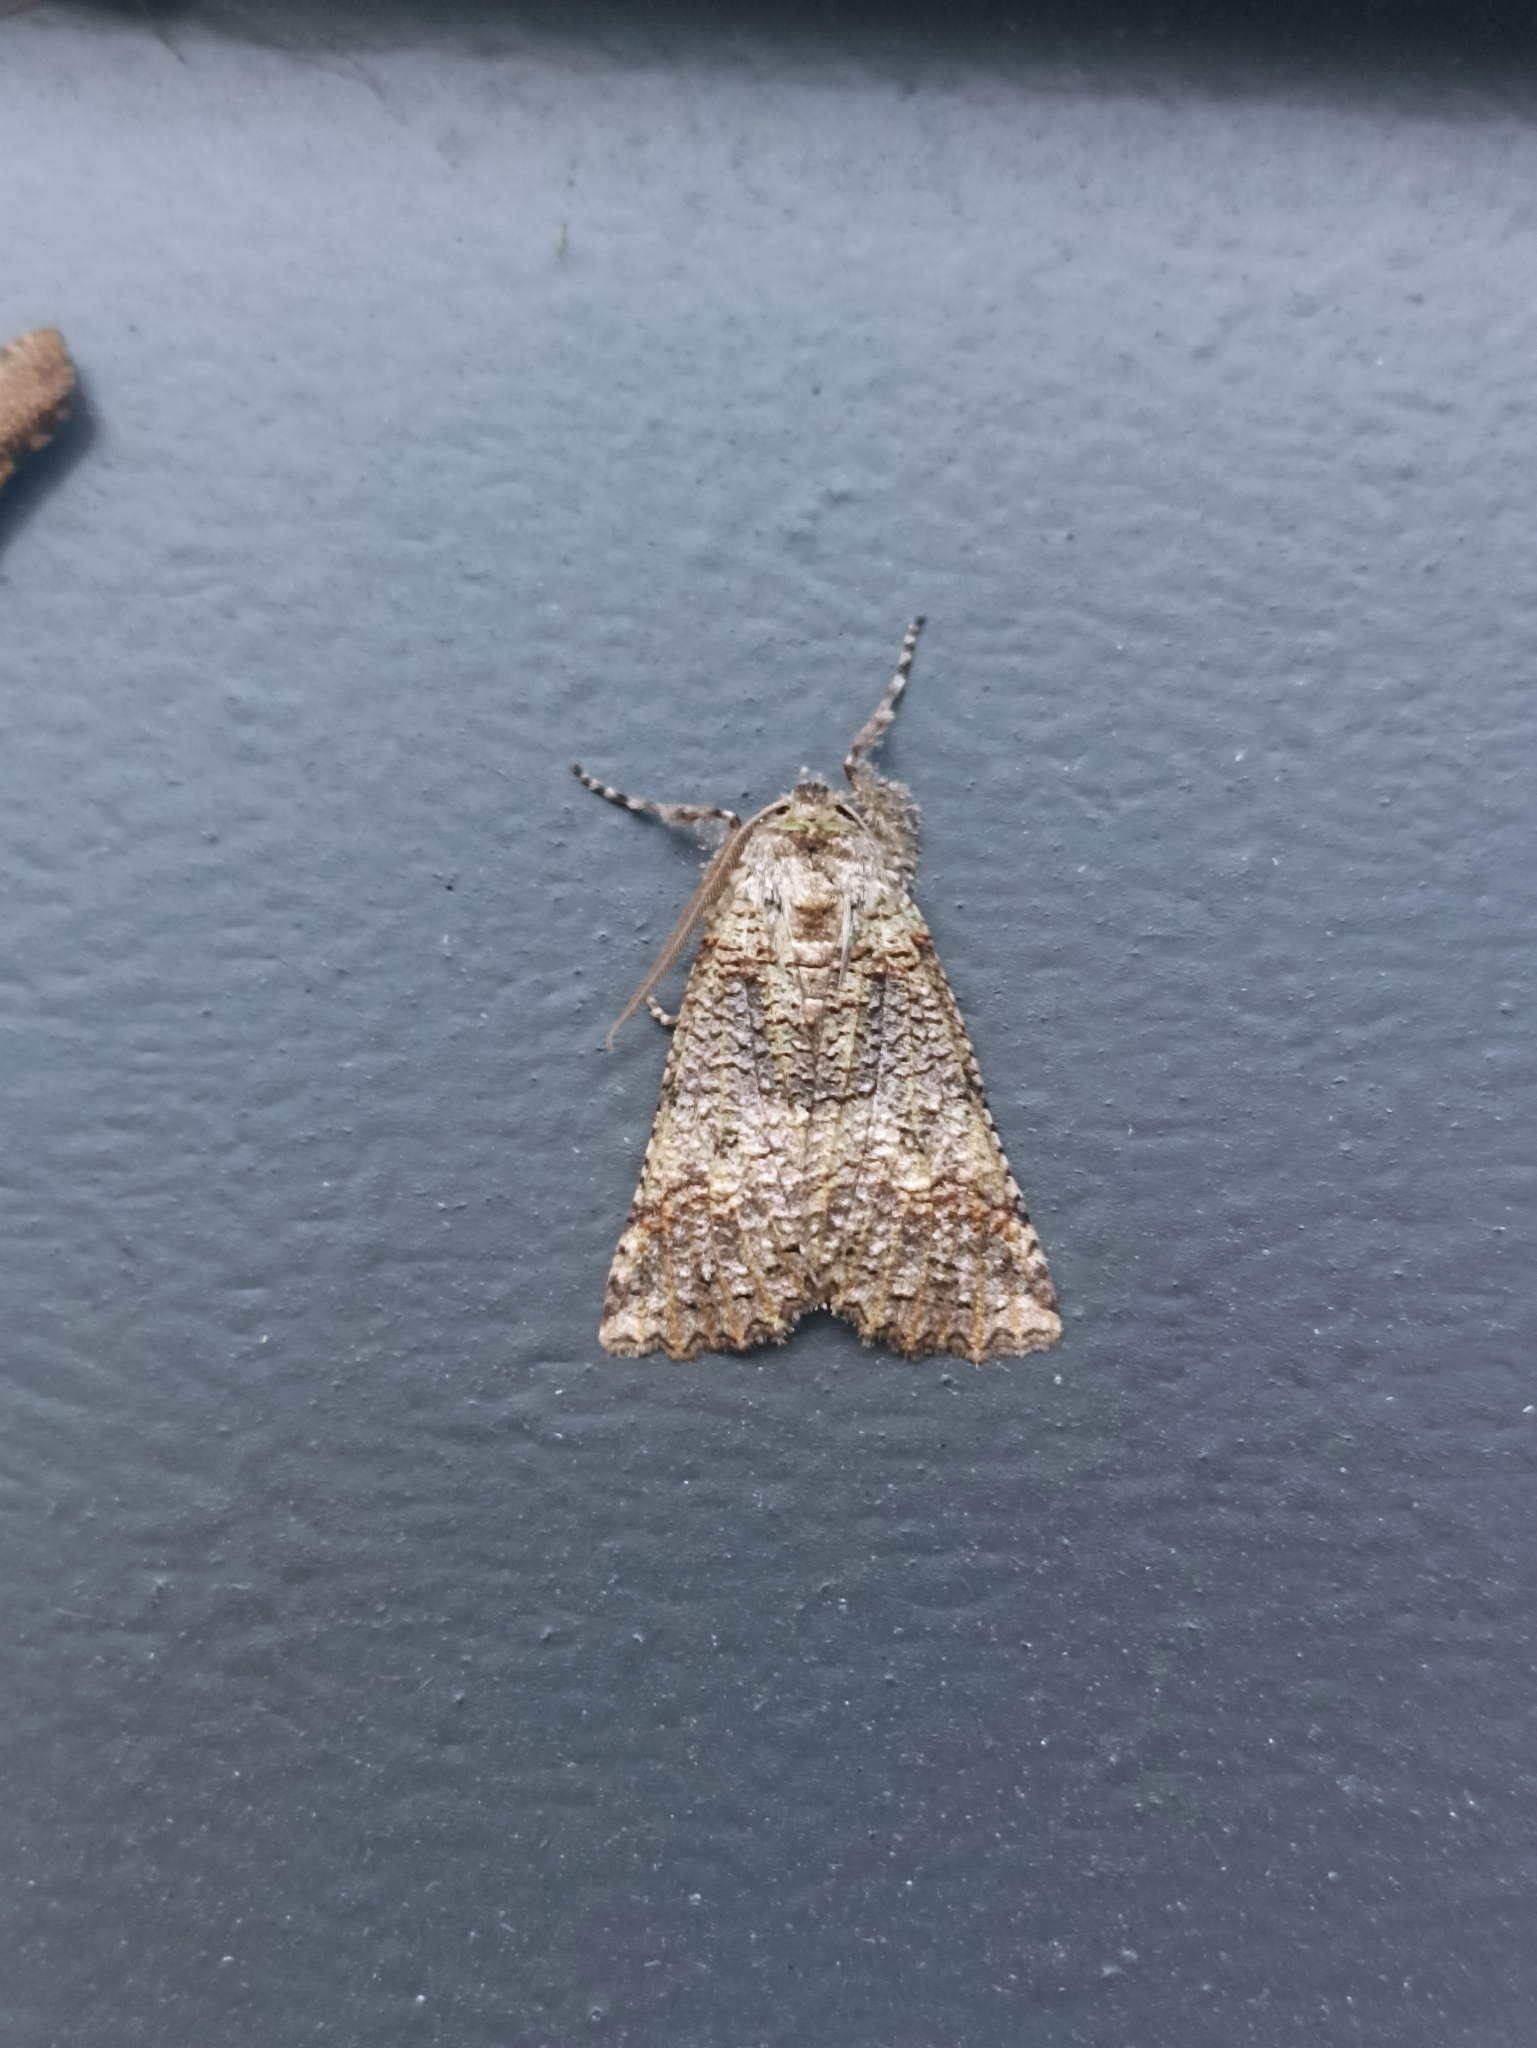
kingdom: Animalia
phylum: Arthropoda
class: Insecta
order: Lepidoptera
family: Geometridae
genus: Declana
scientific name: Declana floccosa
